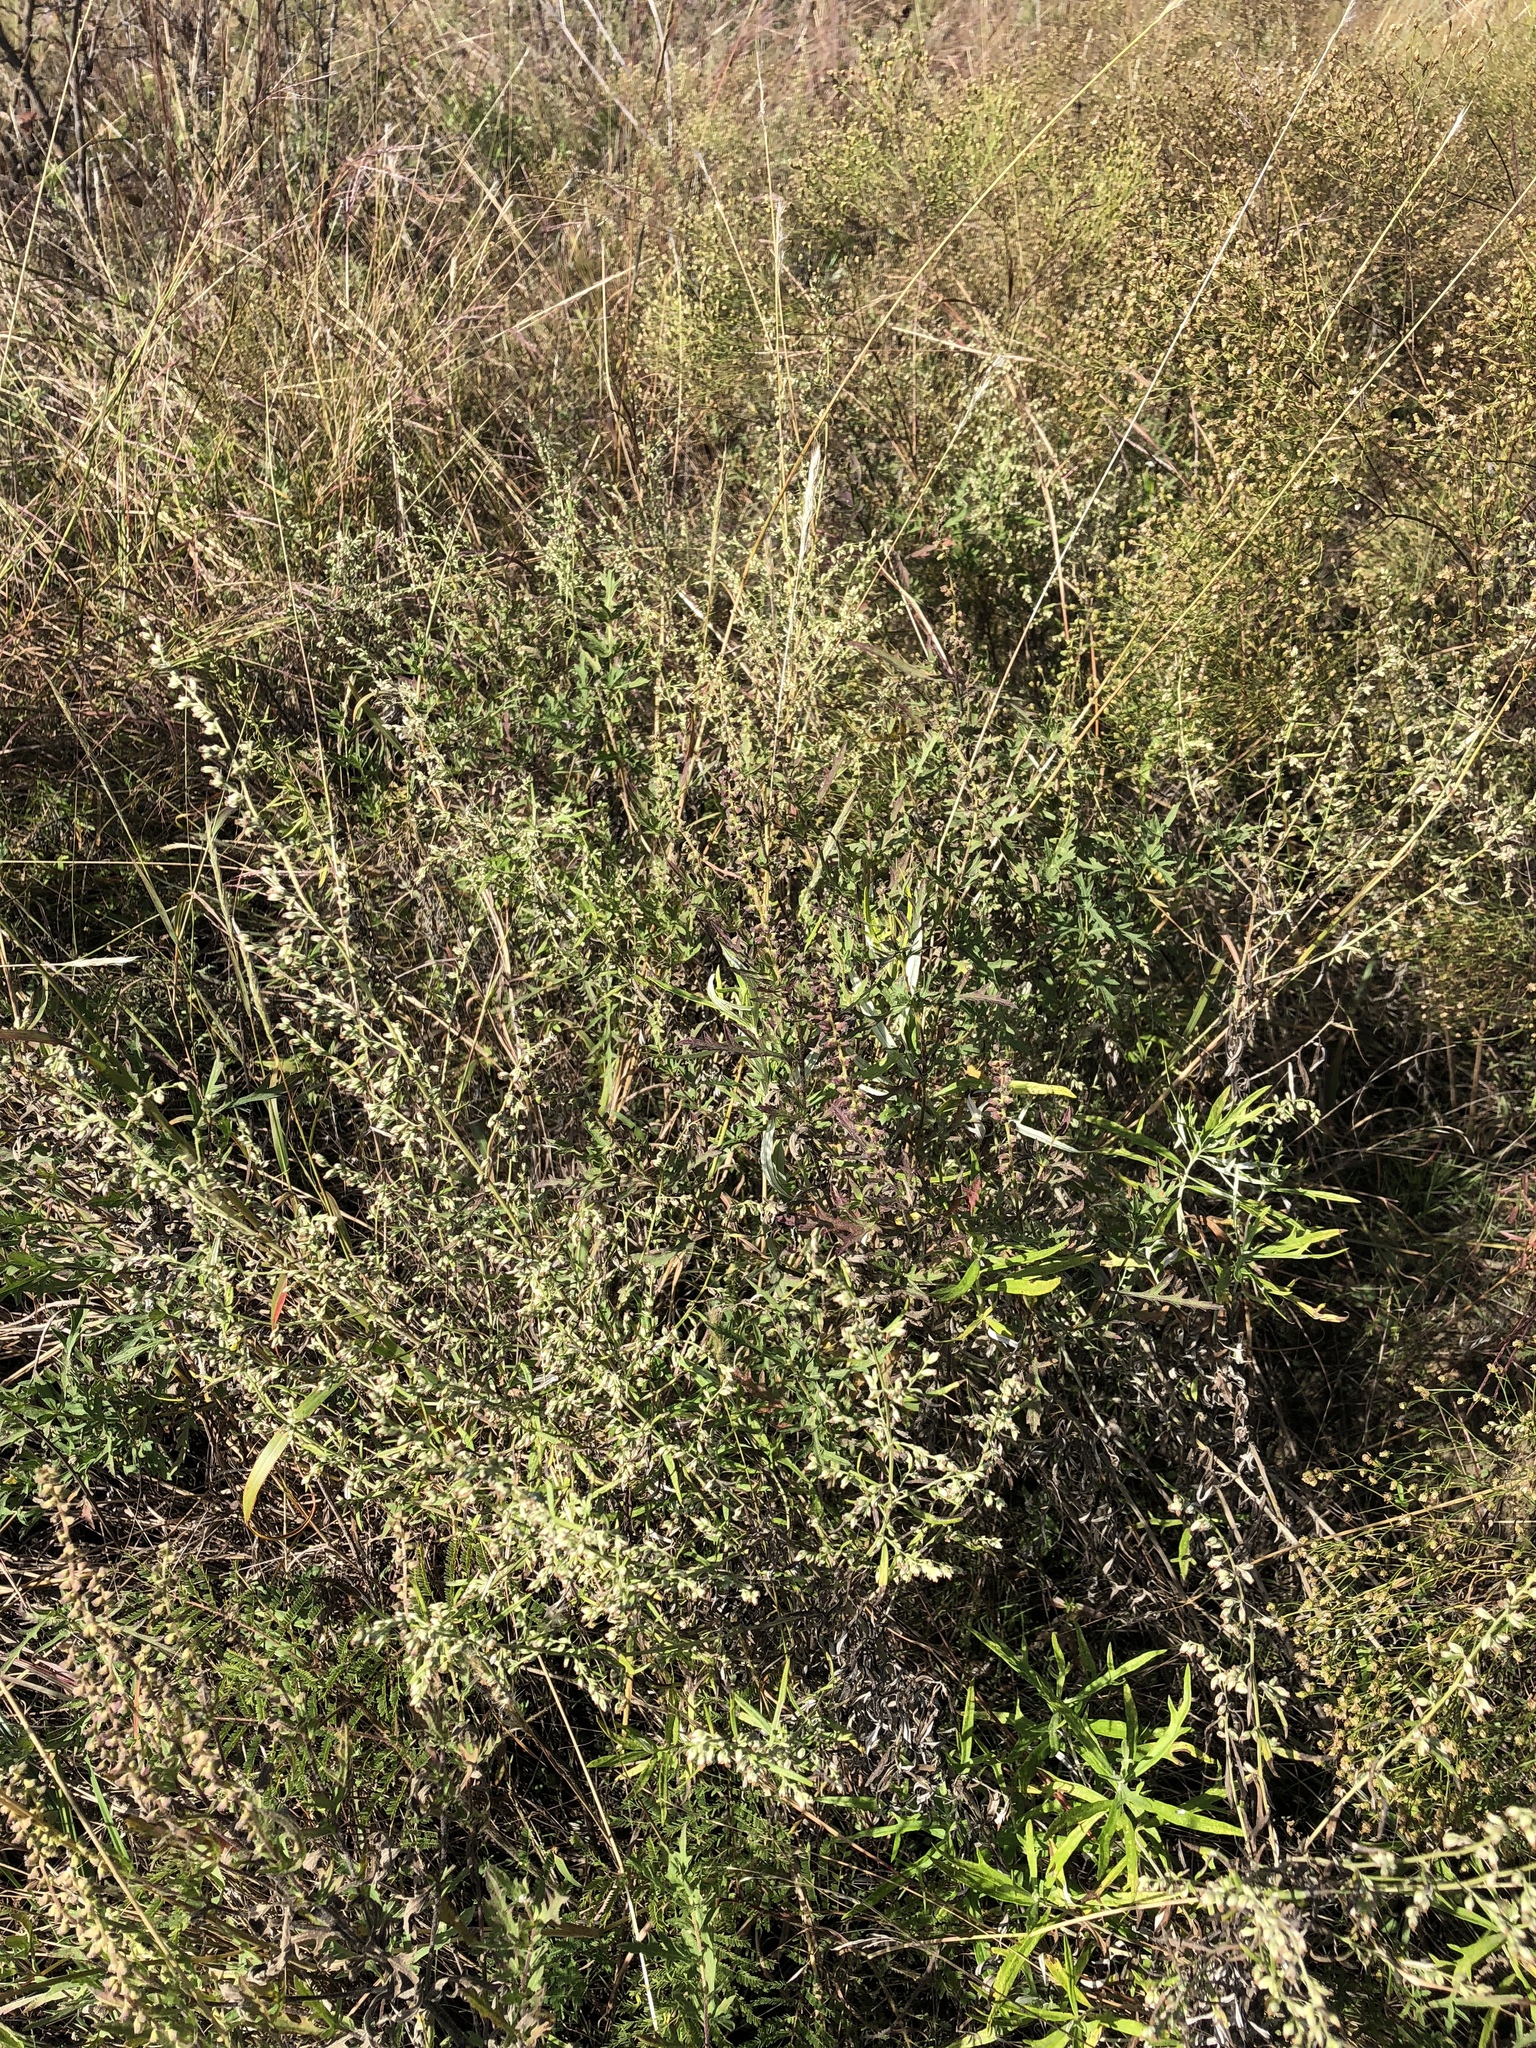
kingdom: Plantae
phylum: Tracheophyta
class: Magnoliopsida
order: Asterales
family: Asteraceae
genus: Artemisia
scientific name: Artemisia ludoviciana
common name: Western mugwort
